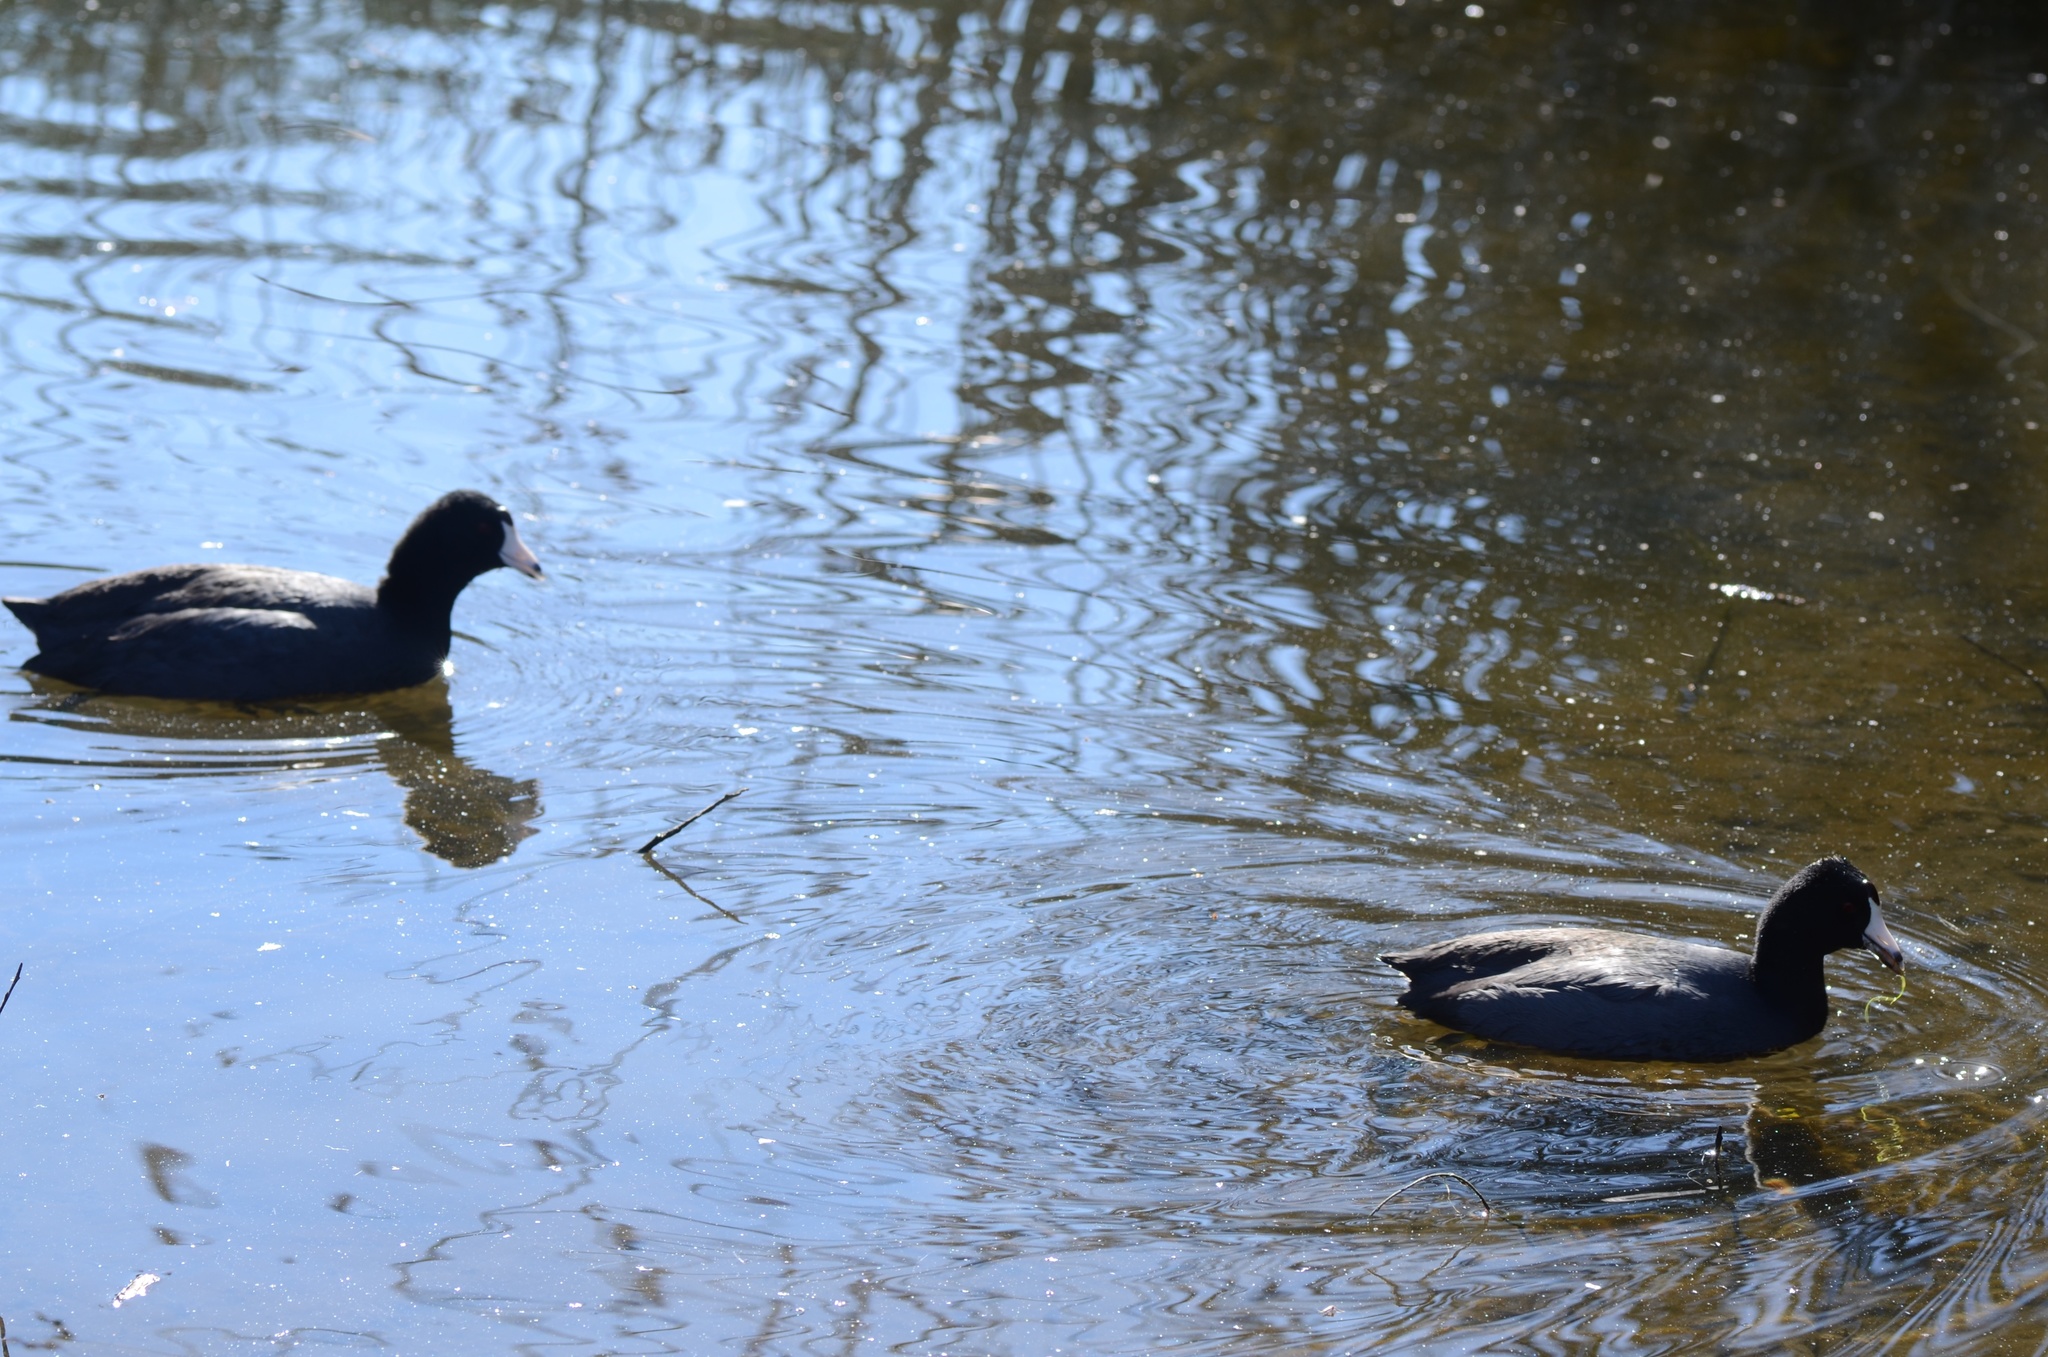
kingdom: Animalia
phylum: Chordata
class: Aves
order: Gruiformes
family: Rallidae
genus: Fulica
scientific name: Fulica americana
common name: American coot
